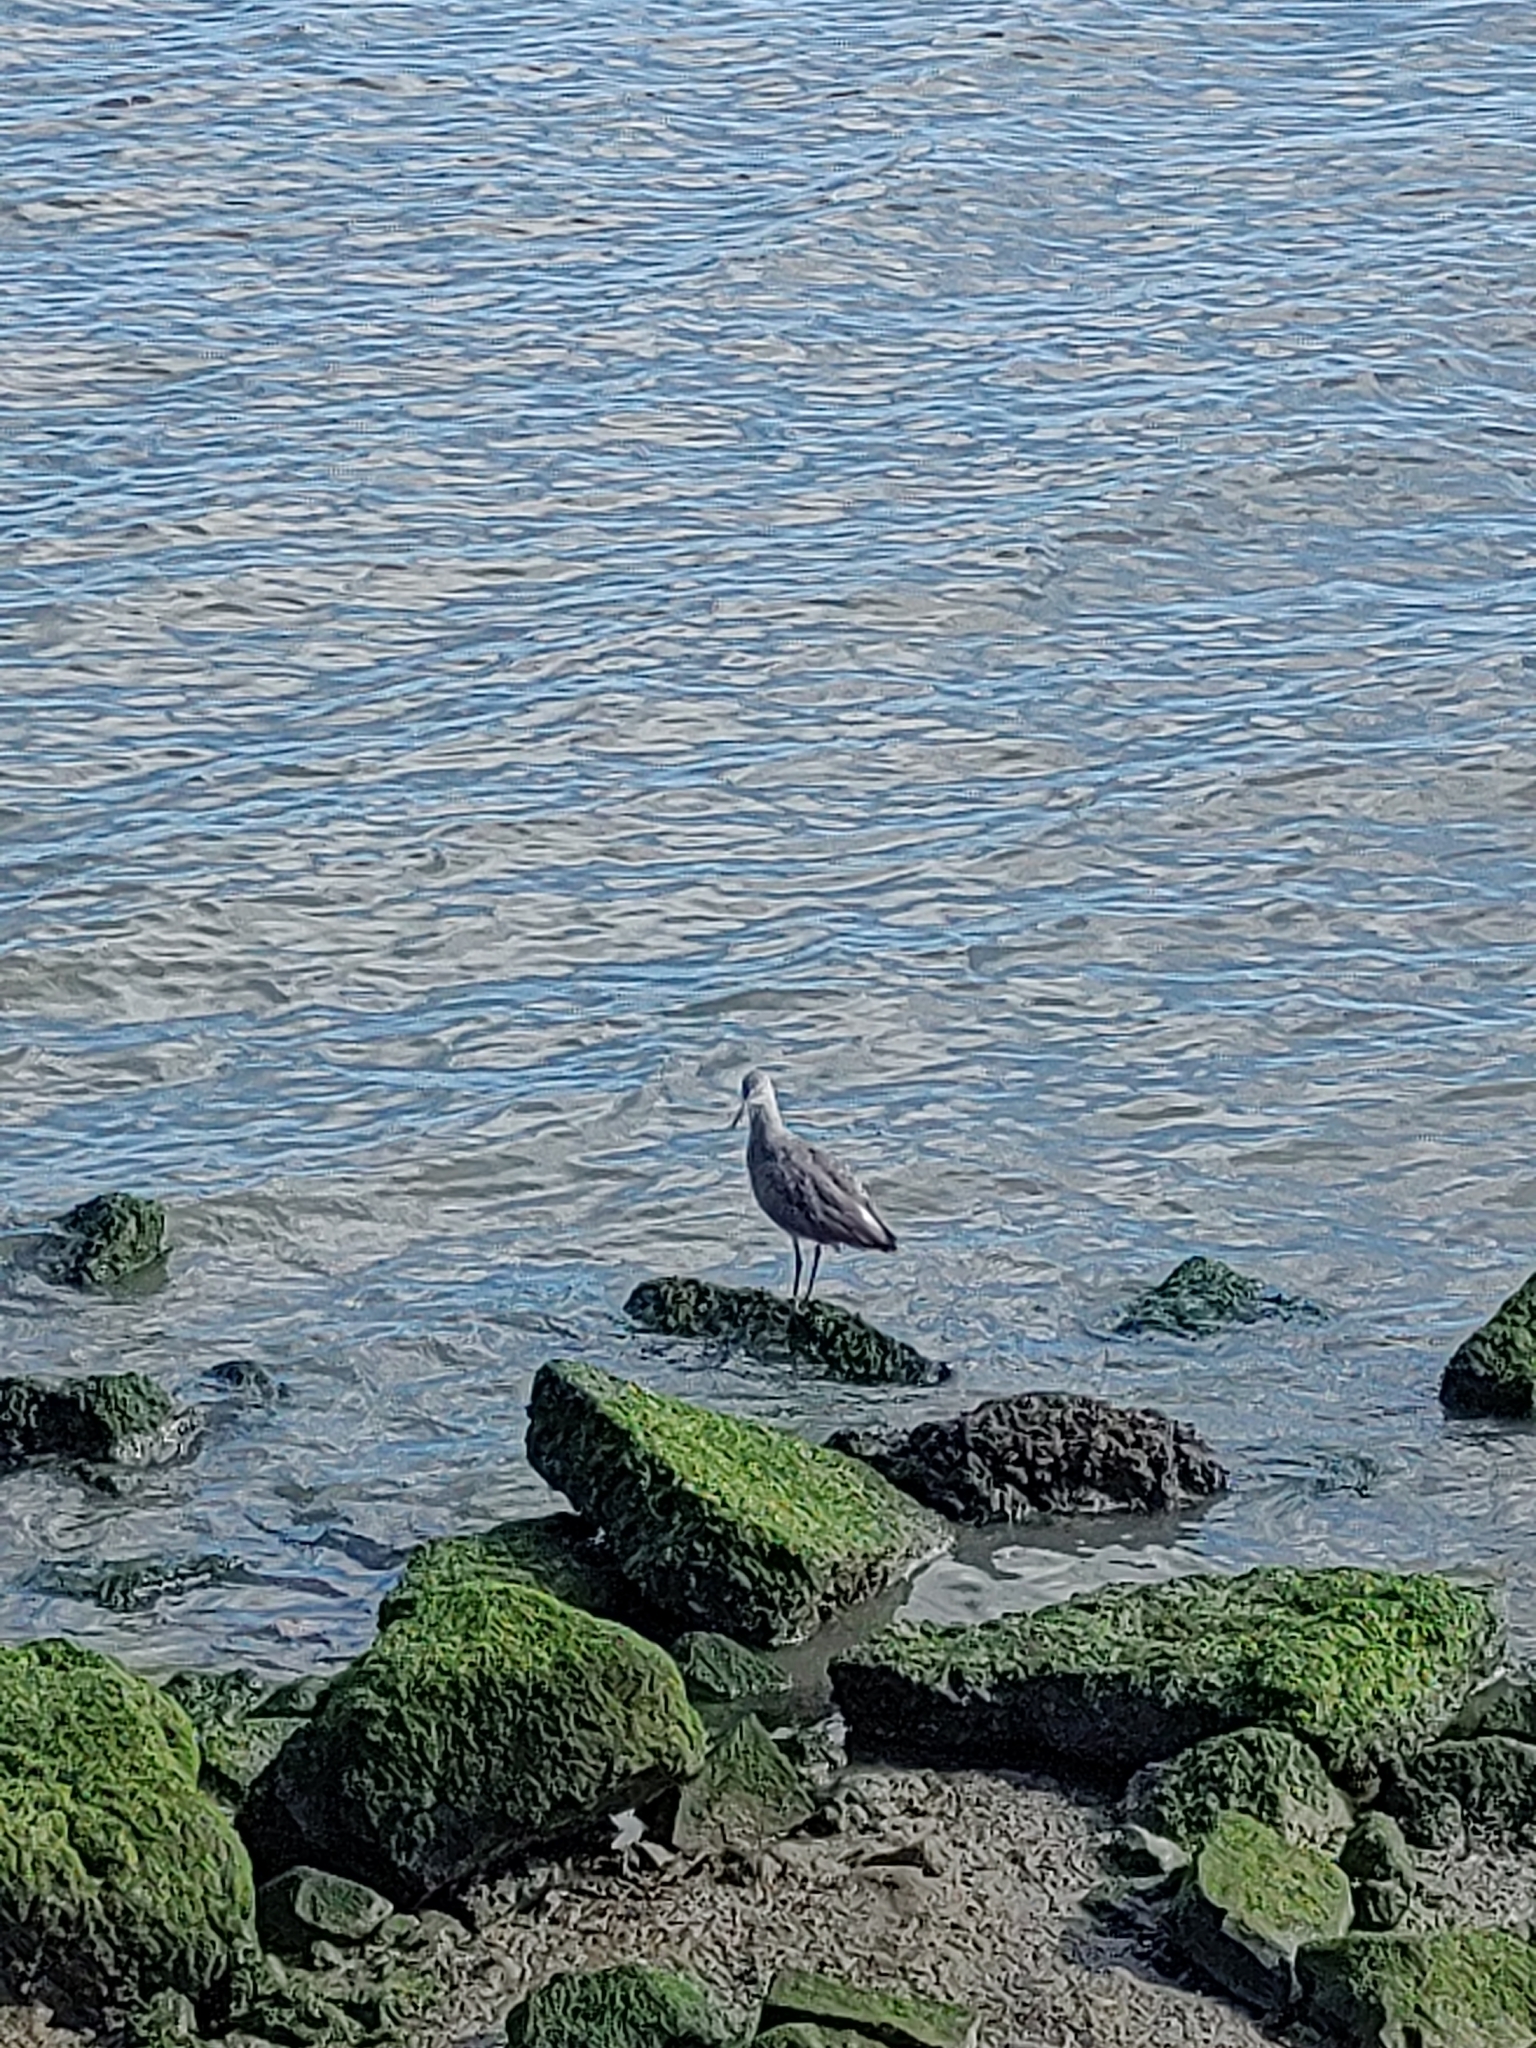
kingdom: Animalia
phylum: Chordata
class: Aves
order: Charadriiformes
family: Scolopacidae
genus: Tringa
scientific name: Tringa semipalmata
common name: Willet
